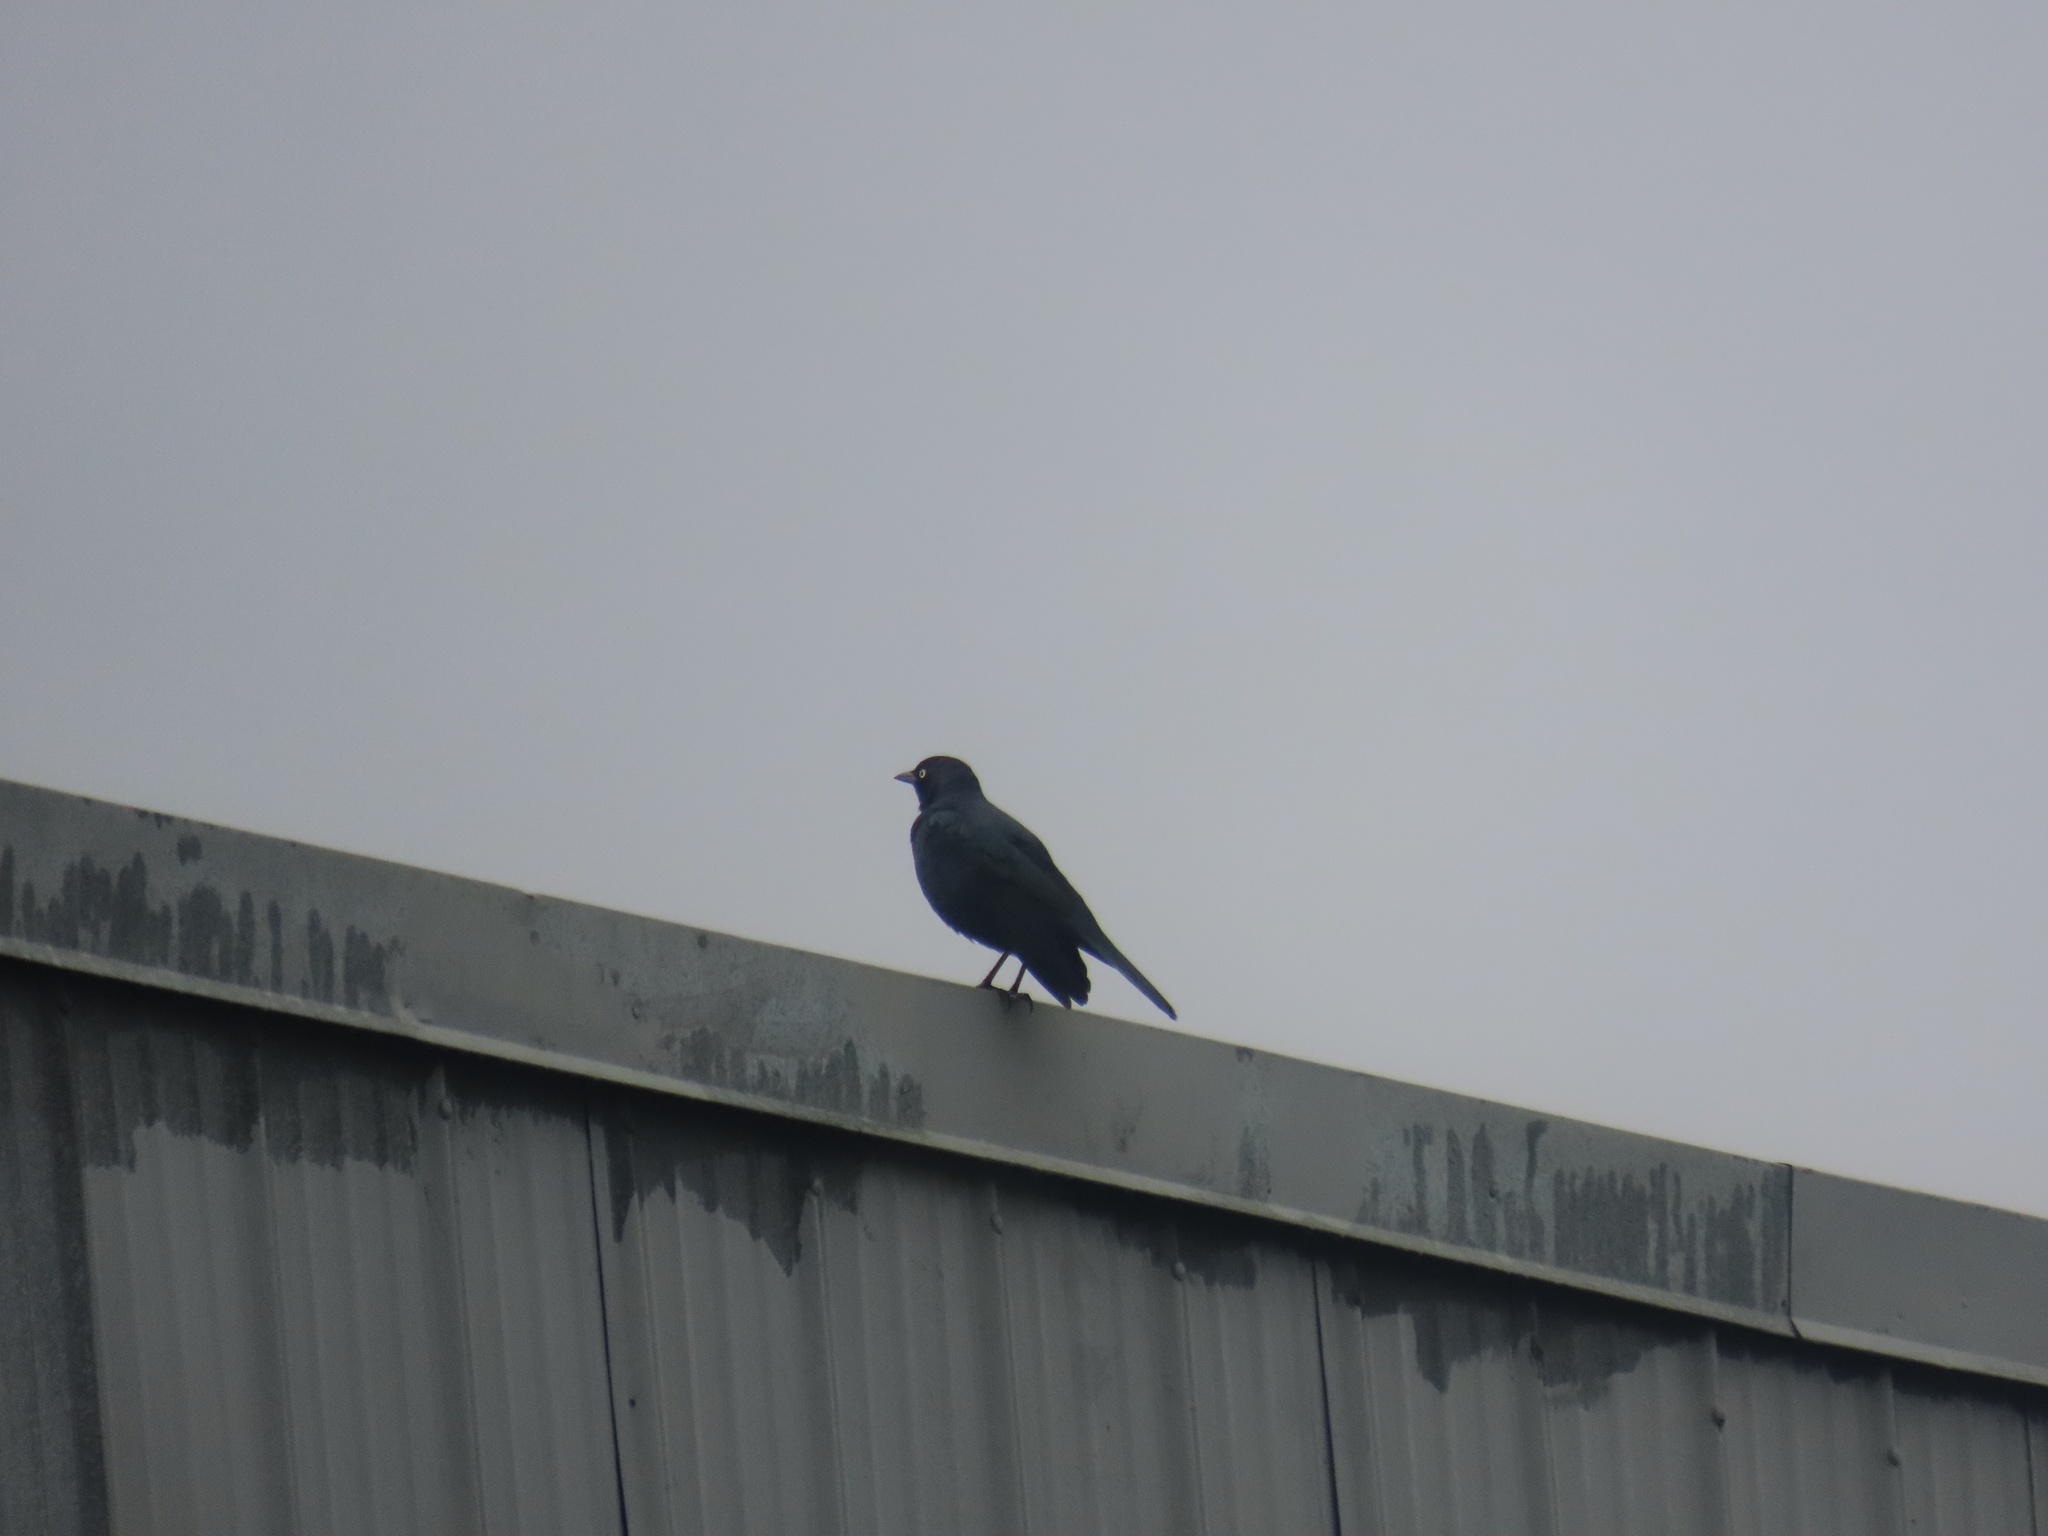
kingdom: Animalia
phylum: Chordata
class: Aves
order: Passeriformes
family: Icteridae
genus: Euphagus
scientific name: Euphagus cyanocephalus
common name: Brewer's blackbird
